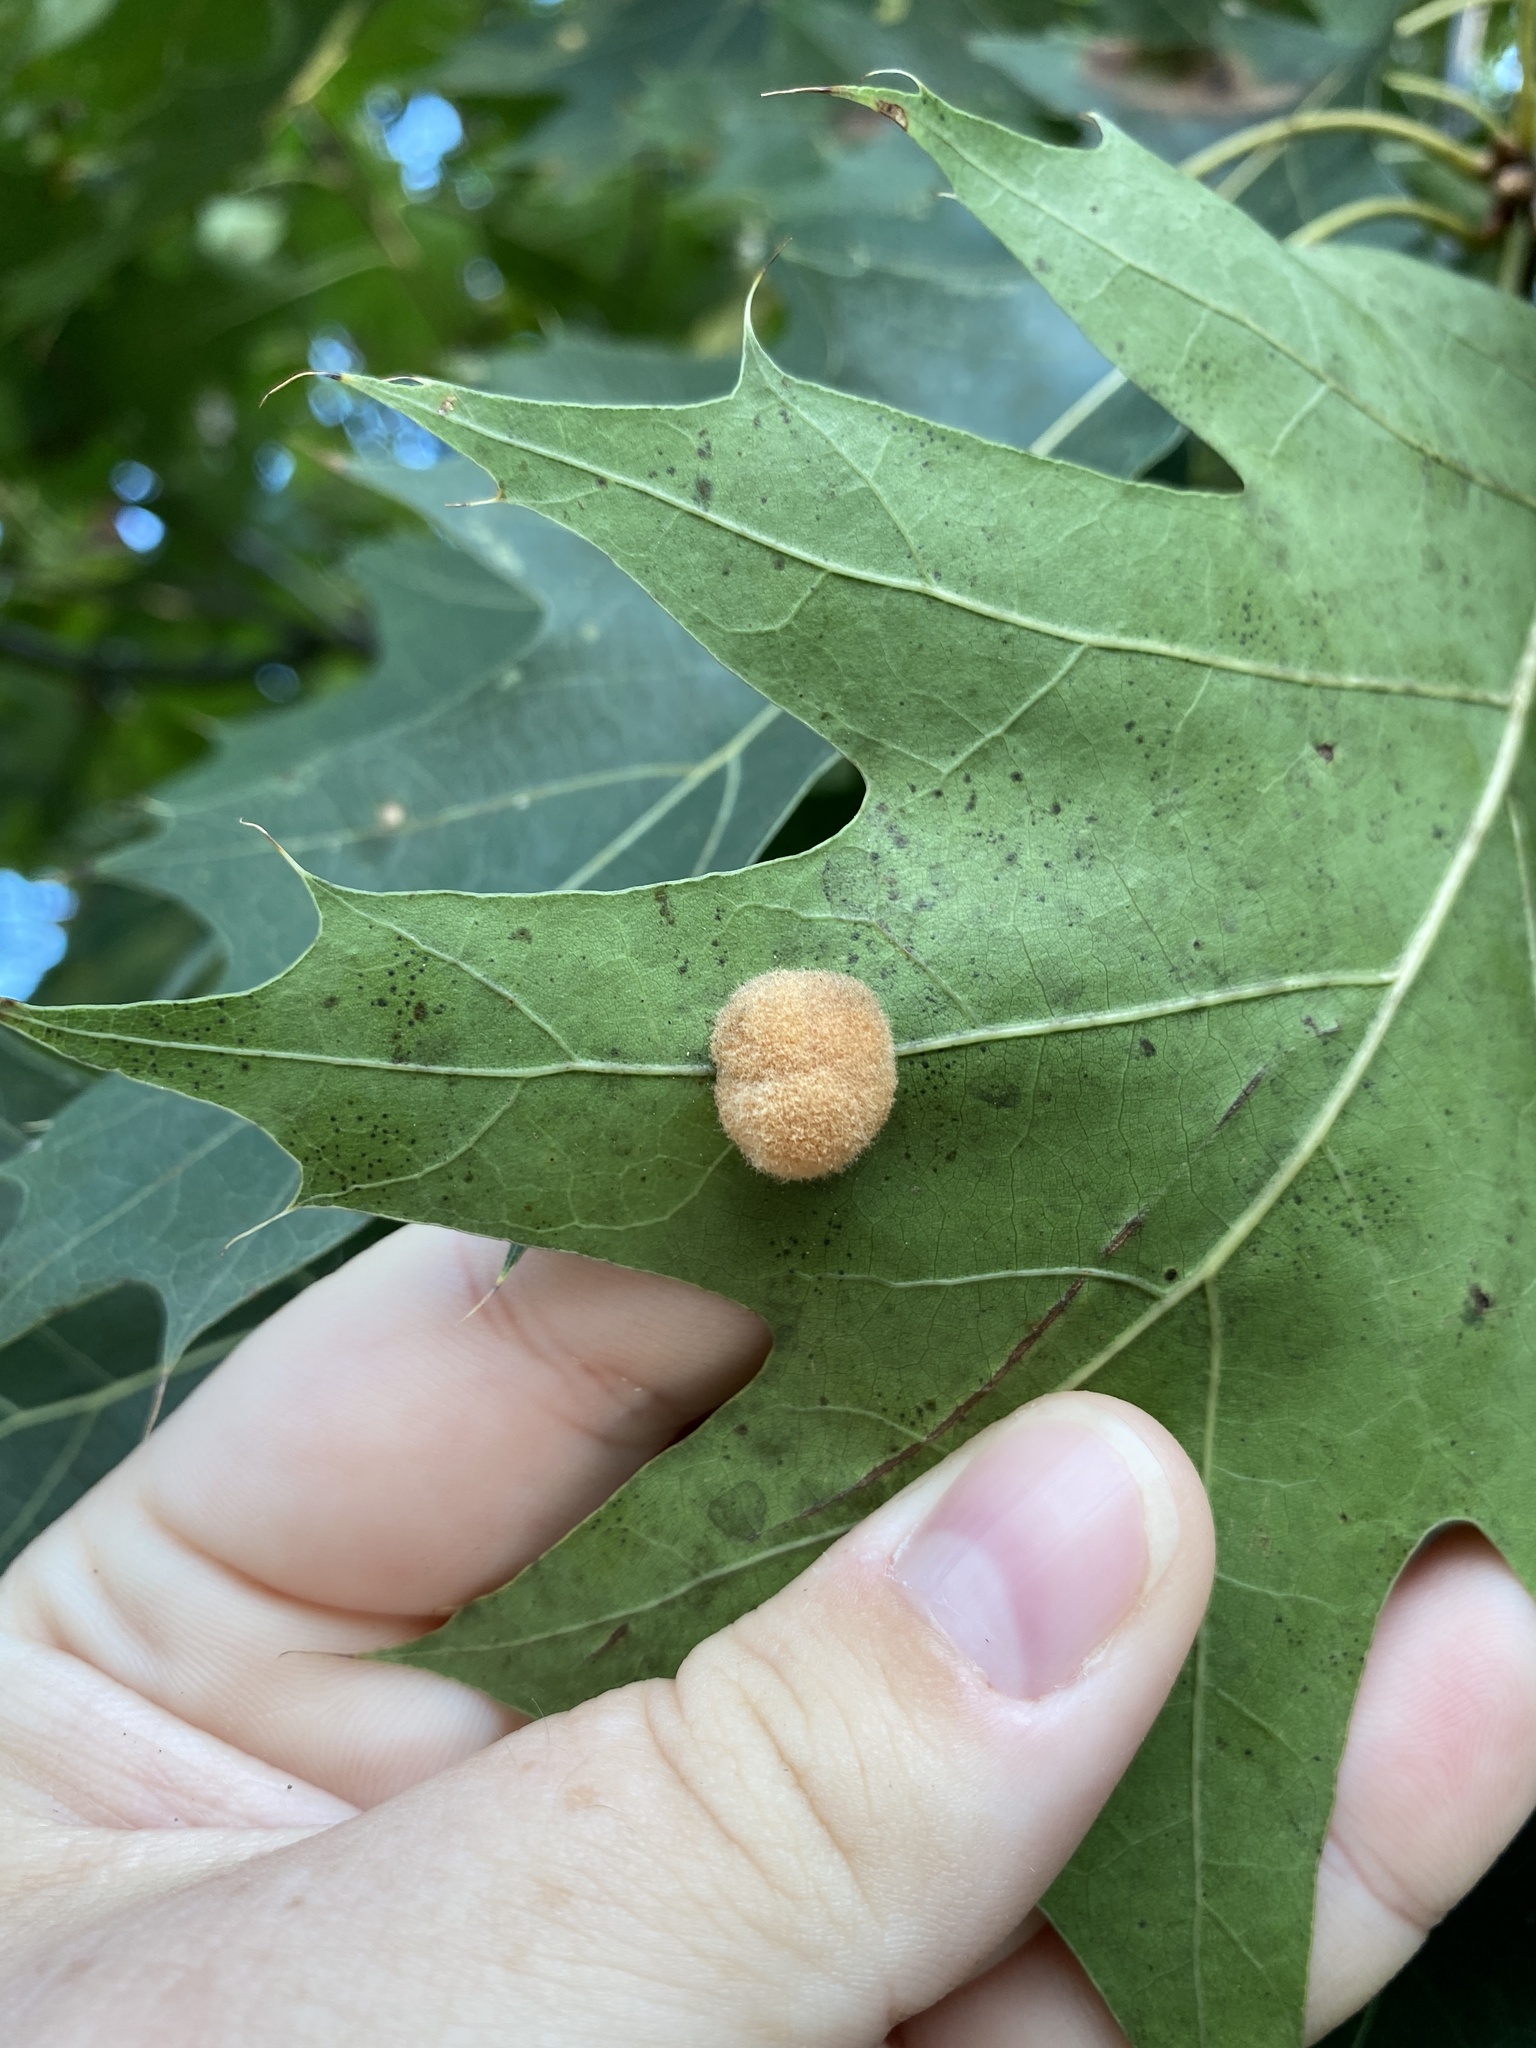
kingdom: Animalia
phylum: Arthropoda
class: Insecta
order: Hymenoptera
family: Cynipidae
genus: Callirhytis
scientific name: Callirhytis
